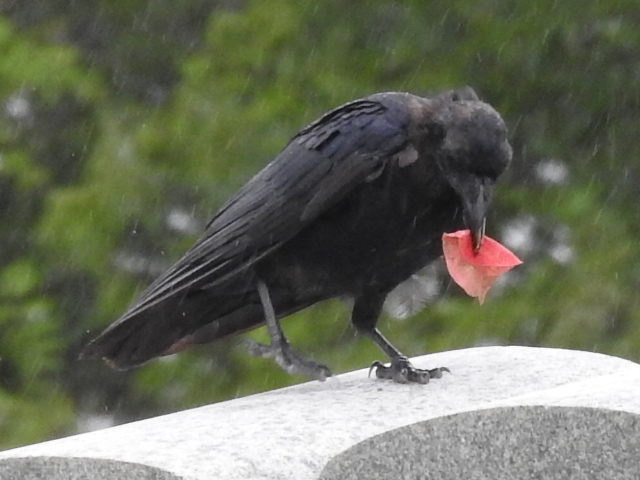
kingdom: Animalia
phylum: Chordata
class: Aves
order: Passeriformes
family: Corvidae
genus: Corvus
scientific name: Corvus brachyrhynchos
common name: American crow
